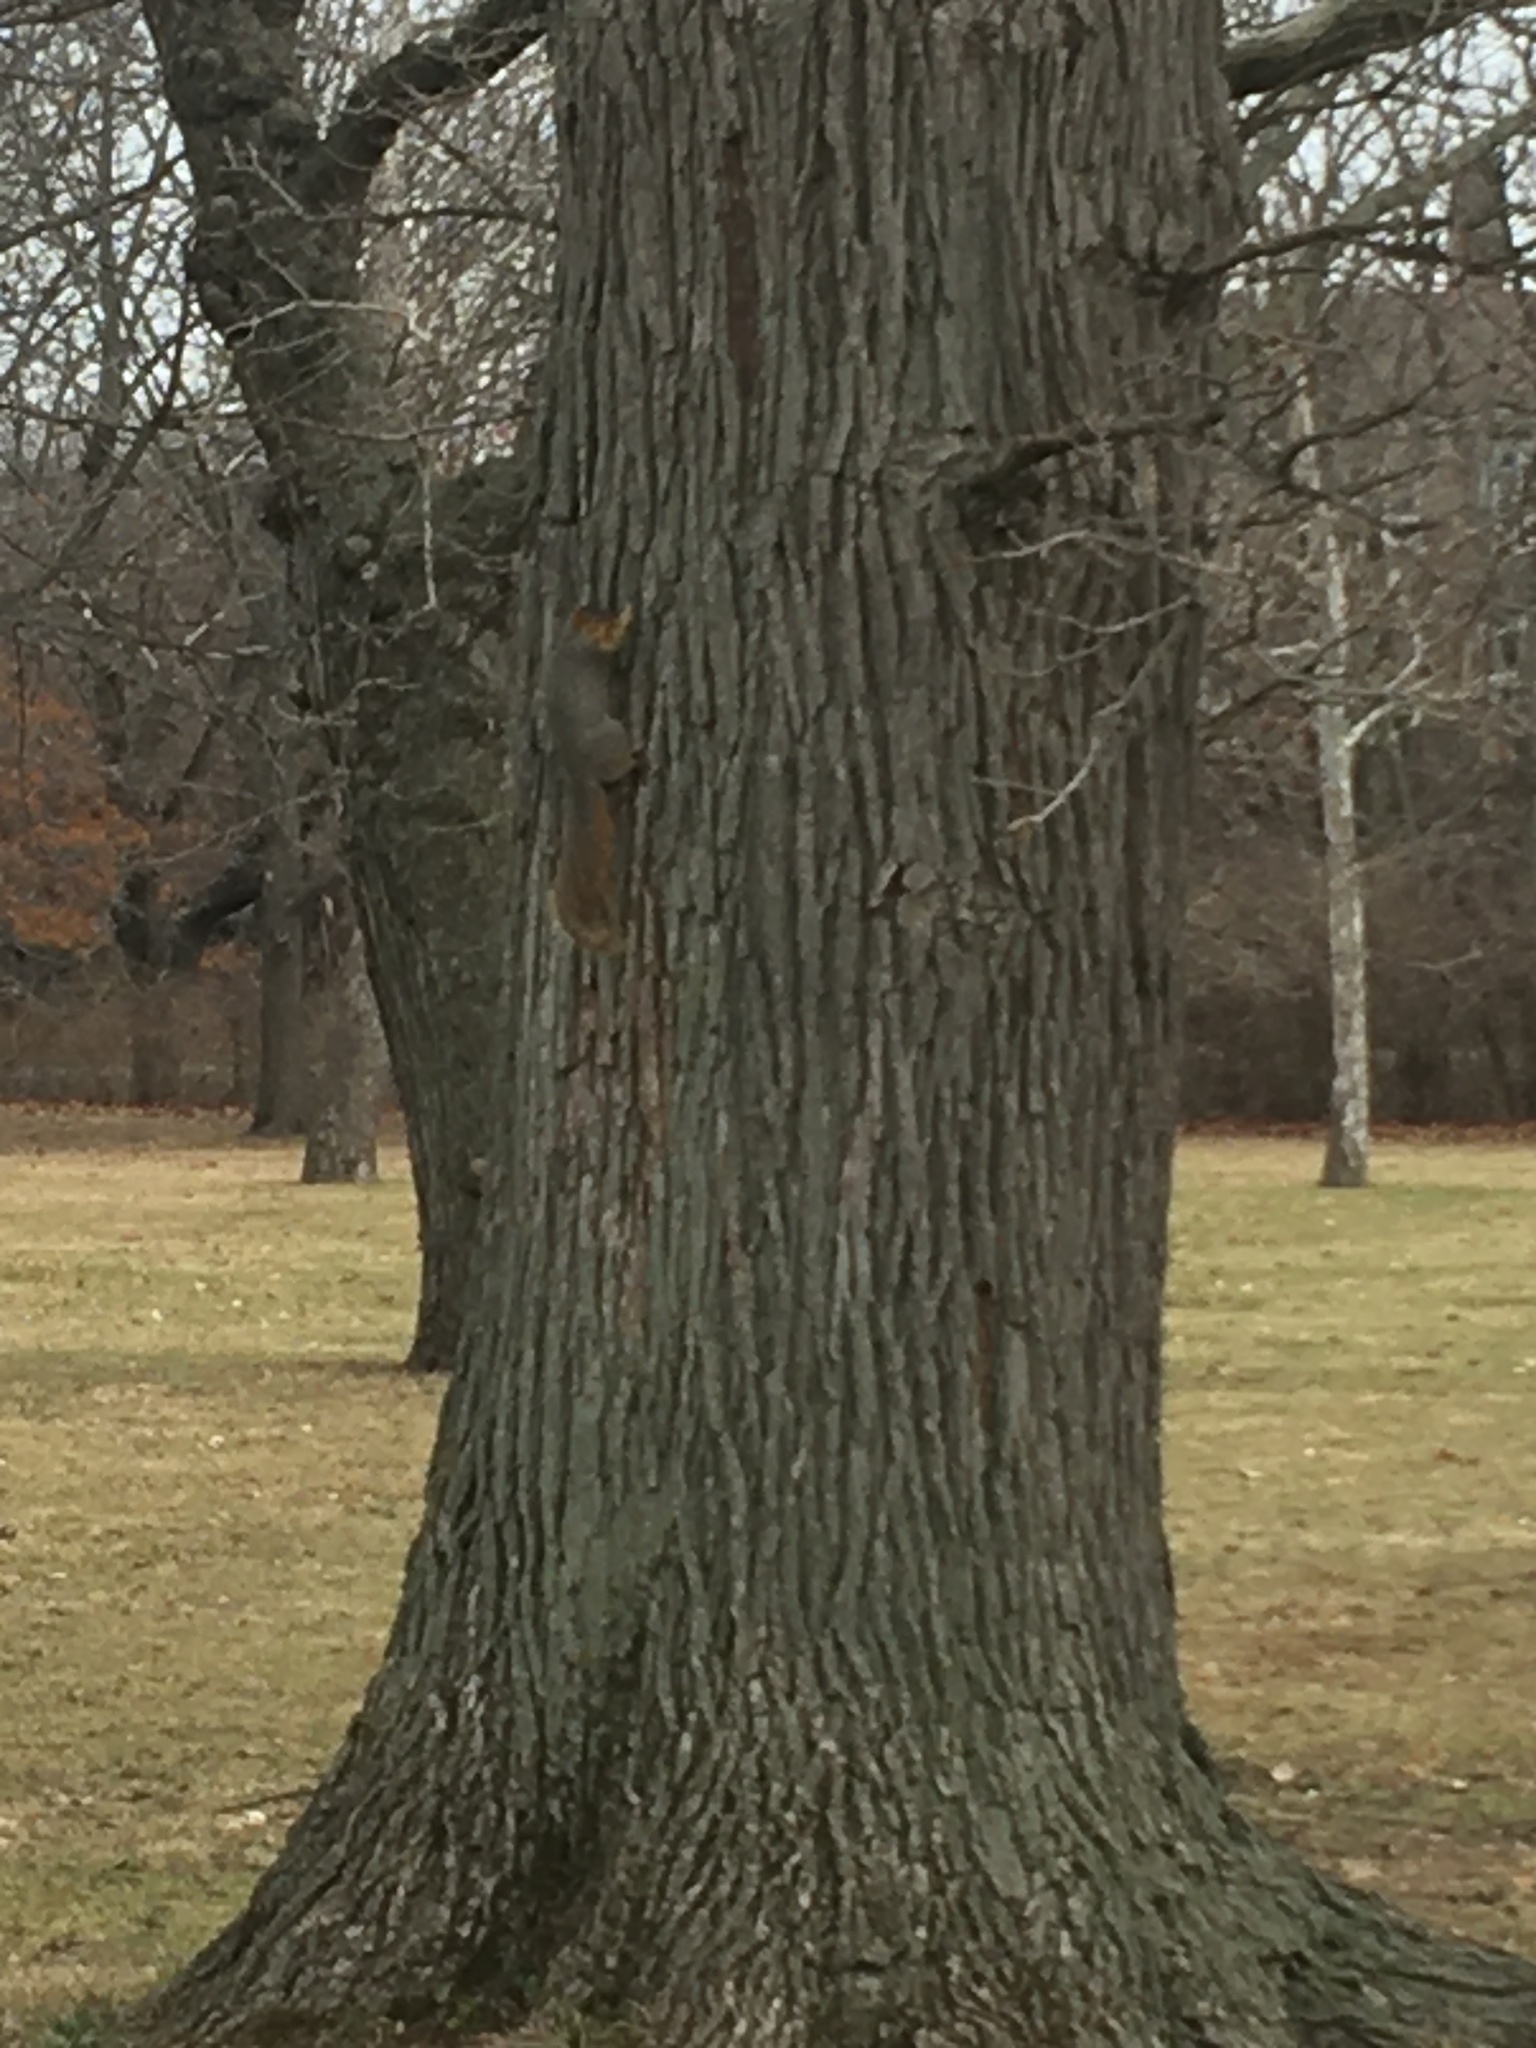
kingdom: Animalia
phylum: Chordata
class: Mammalia
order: Rodentia
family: Sciuridae
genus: Sciurus
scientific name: Sciurus niger
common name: Fox squirrel
